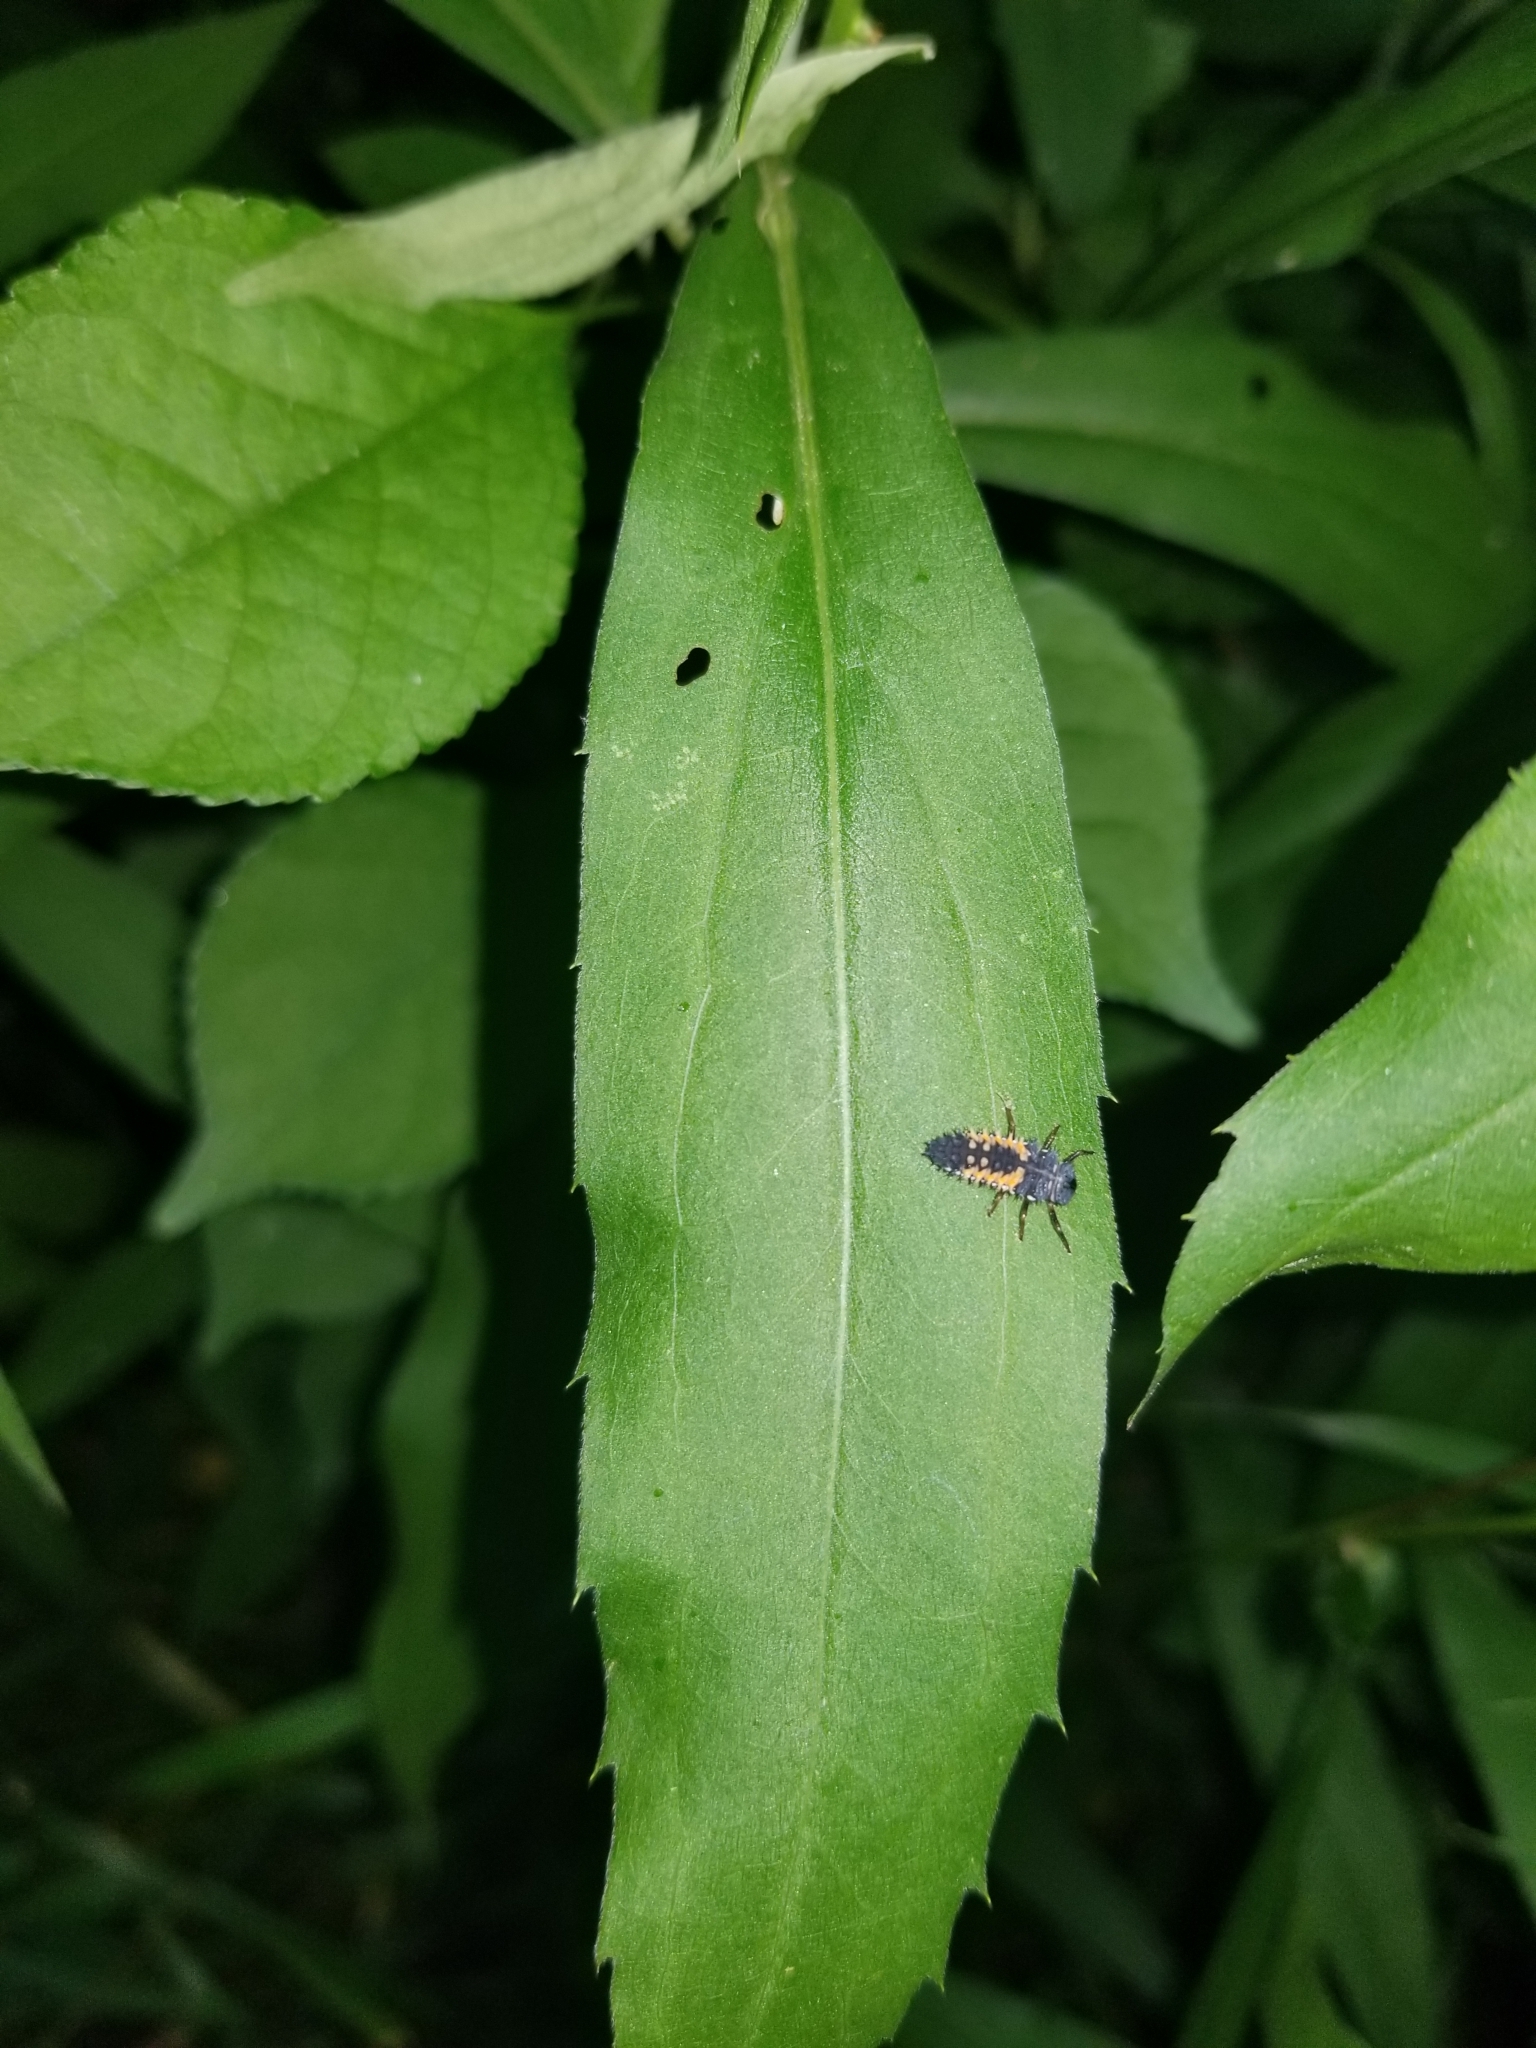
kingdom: Animalia
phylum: Arthropoda
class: Insecta
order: Coleoptera
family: Coccinellidae
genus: Harmonia
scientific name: Harmonia axyridis
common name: Harlequin ladybird
